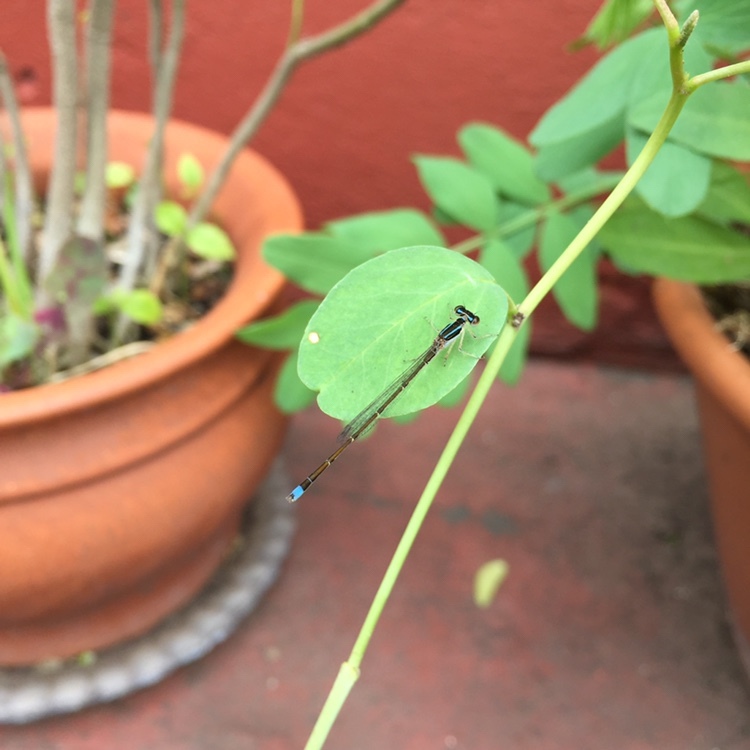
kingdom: Animalia
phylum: Arthropoda
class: Insecta
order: Odonata
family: Coenagrionidae
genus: Argentagrion
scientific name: Argentagrion ambiguum
